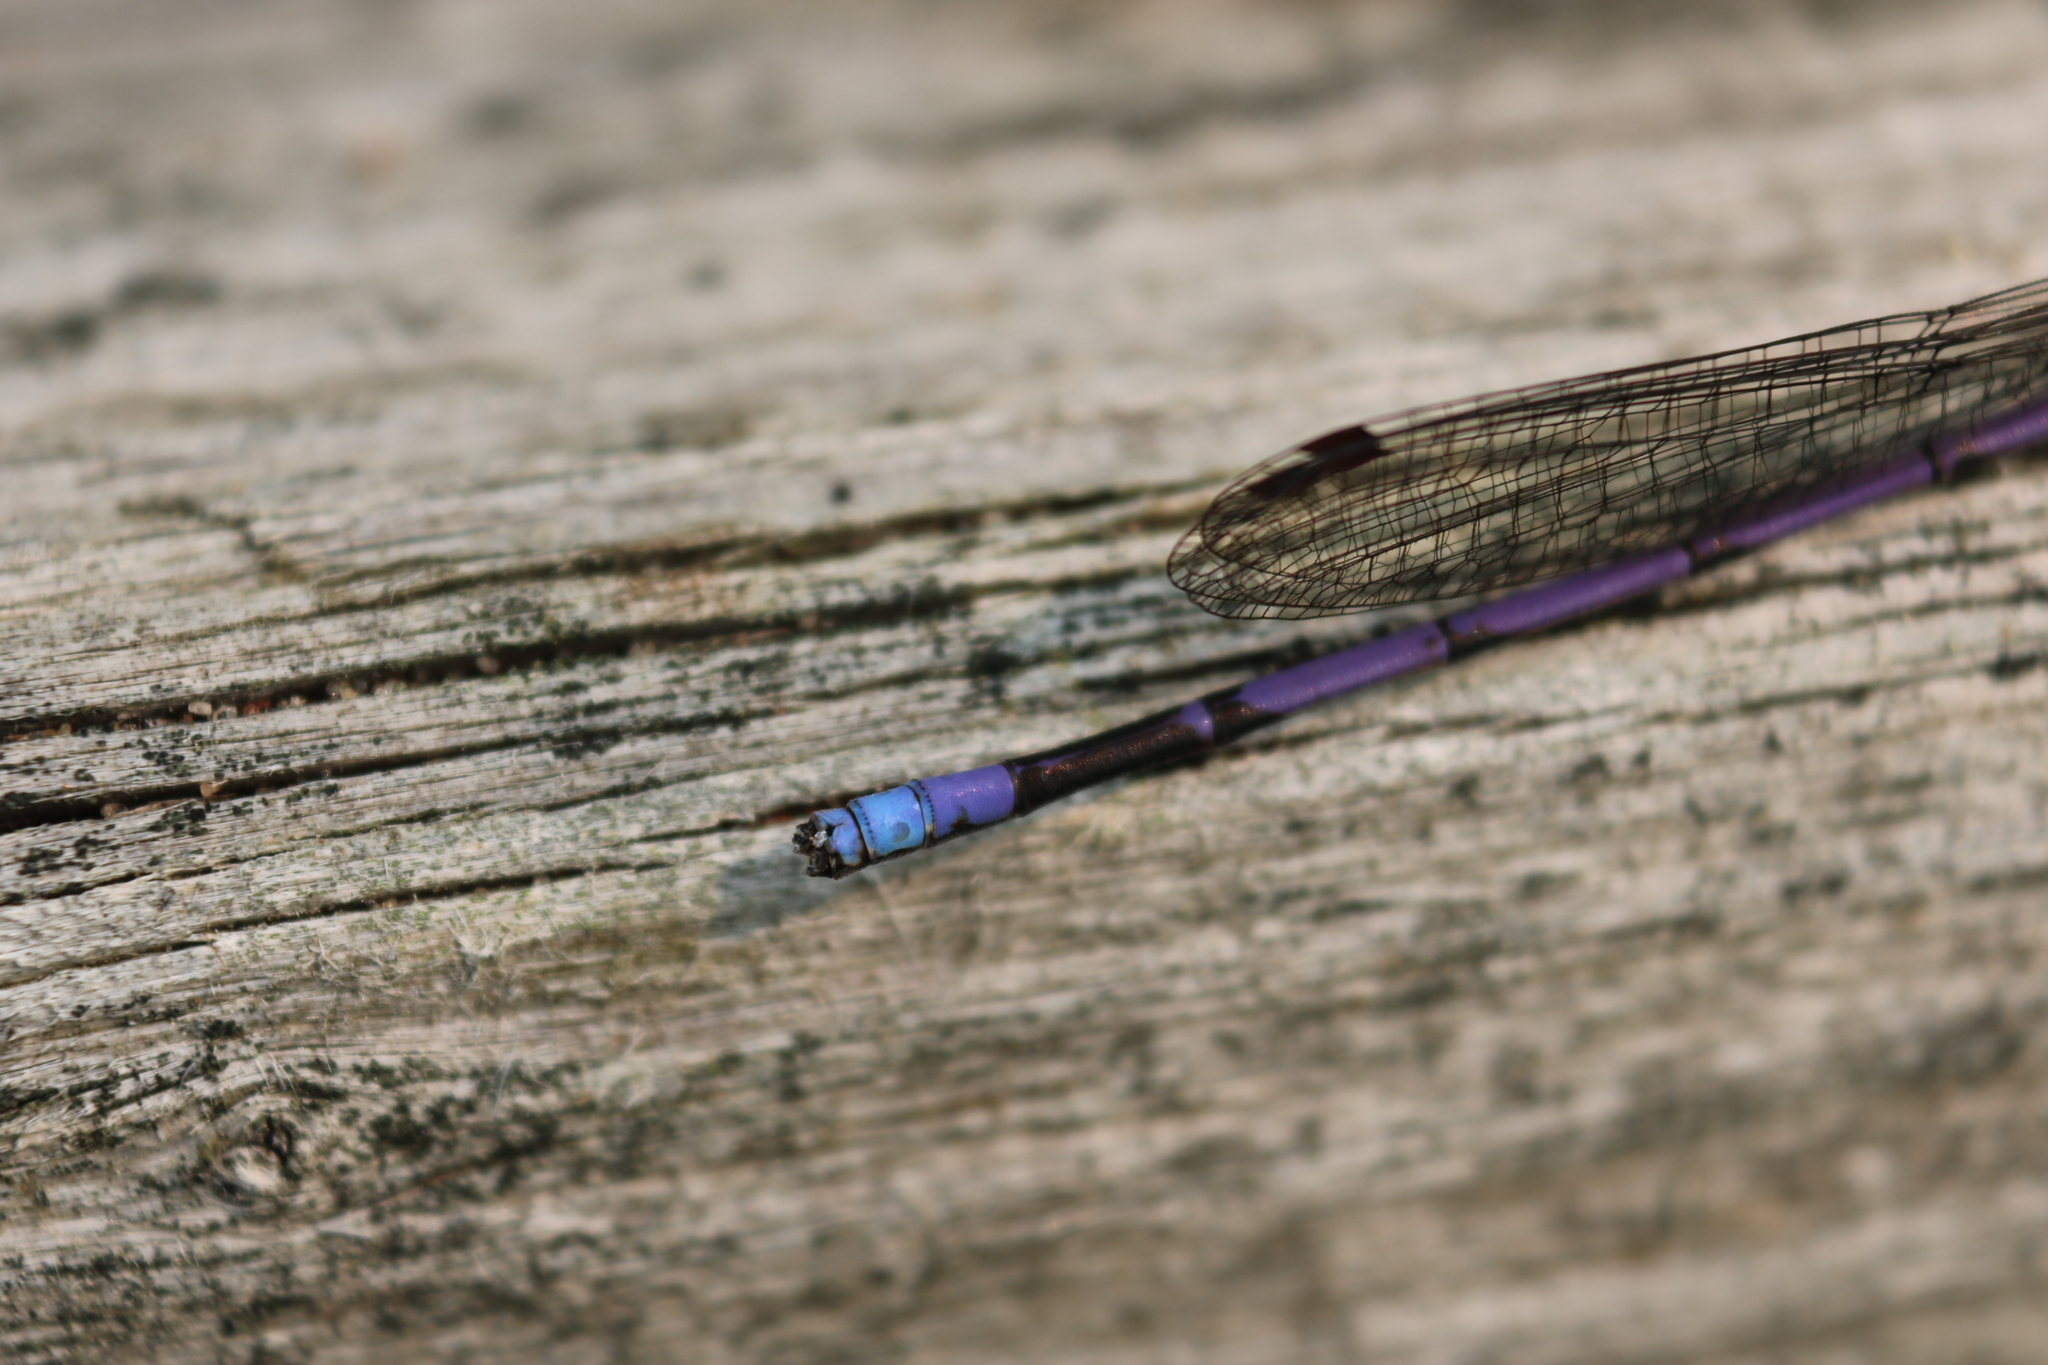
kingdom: Animalia
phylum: Arthropoda
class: Insecta
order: Odonata
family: Coenagrionidae
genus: Argia
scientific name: Argia fumipennis
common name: Variable dancer
